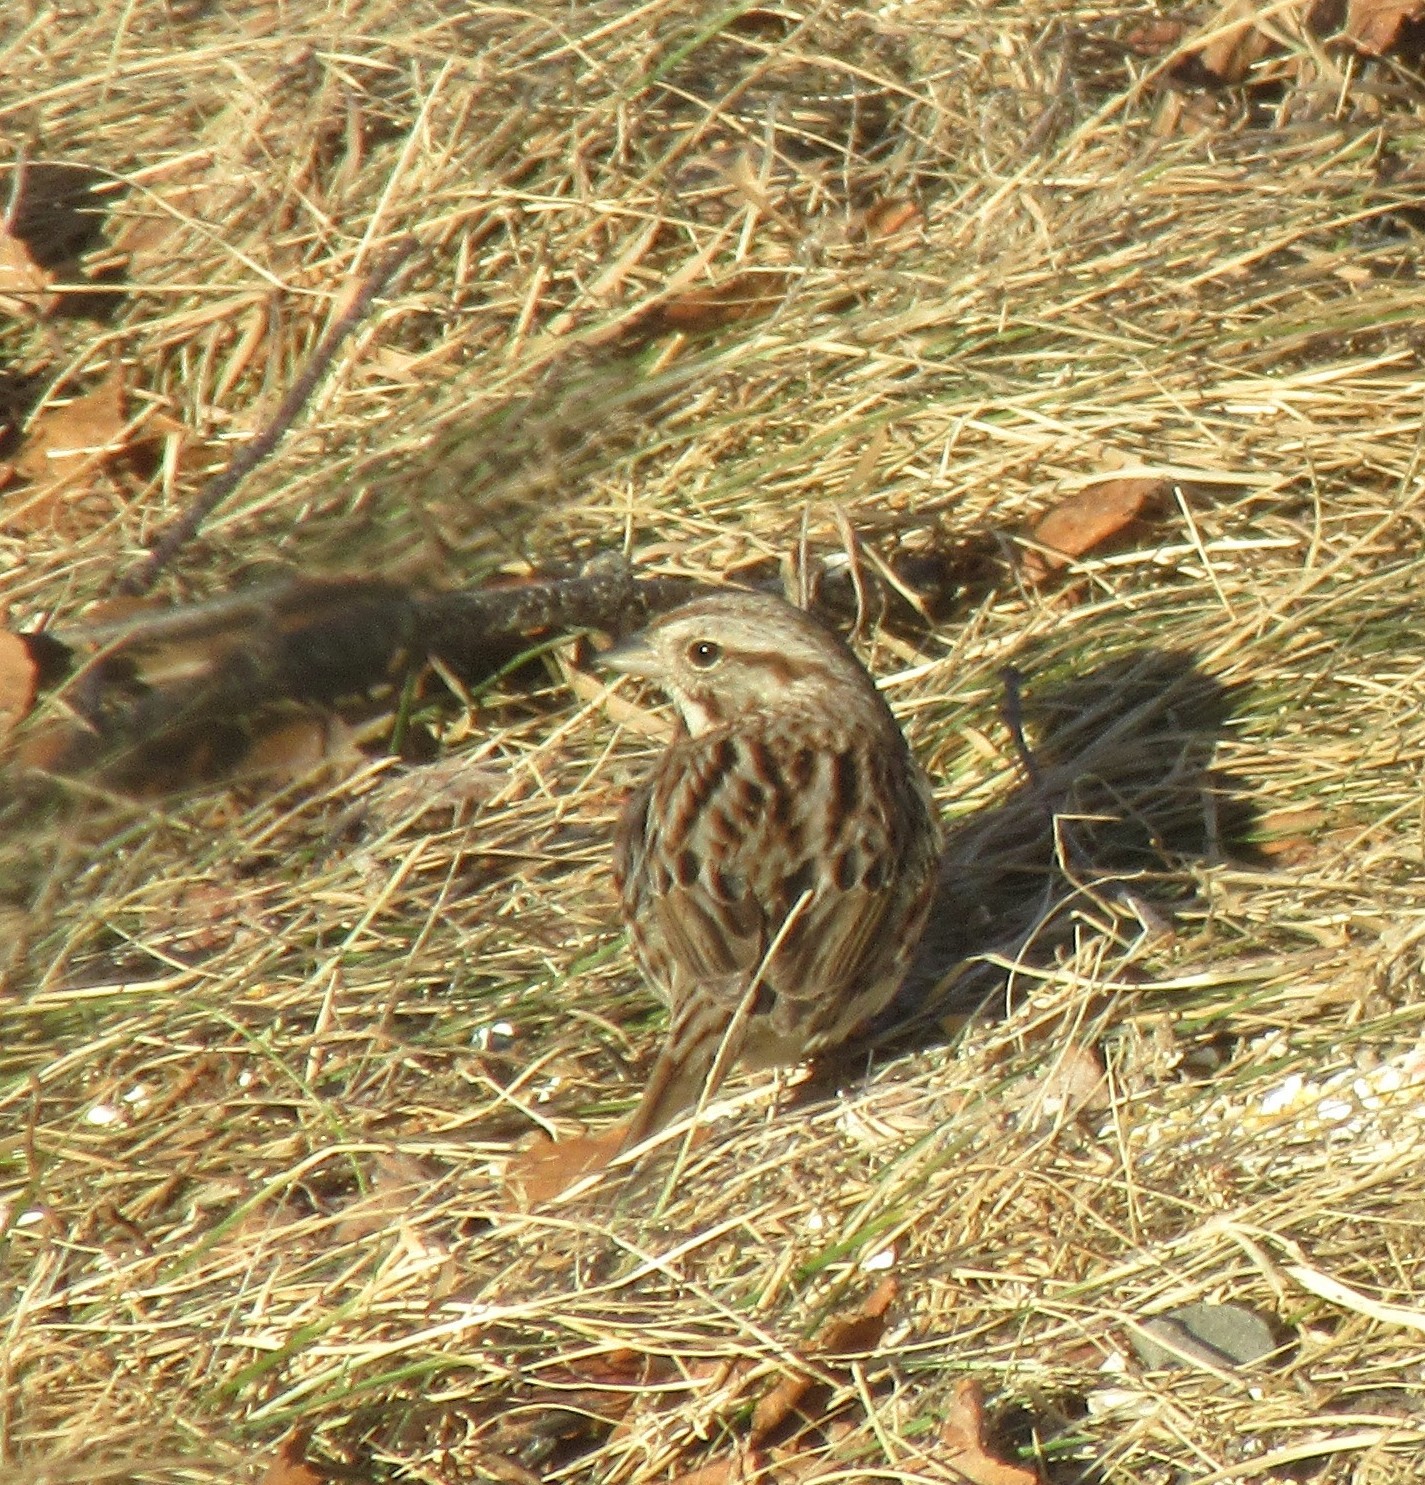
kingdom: Animalia
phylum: Chordata
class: Aves
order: Passeriformes
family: Passerellidae
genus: Melospiza
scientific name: Melospiza melodia
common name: Song sparrow
